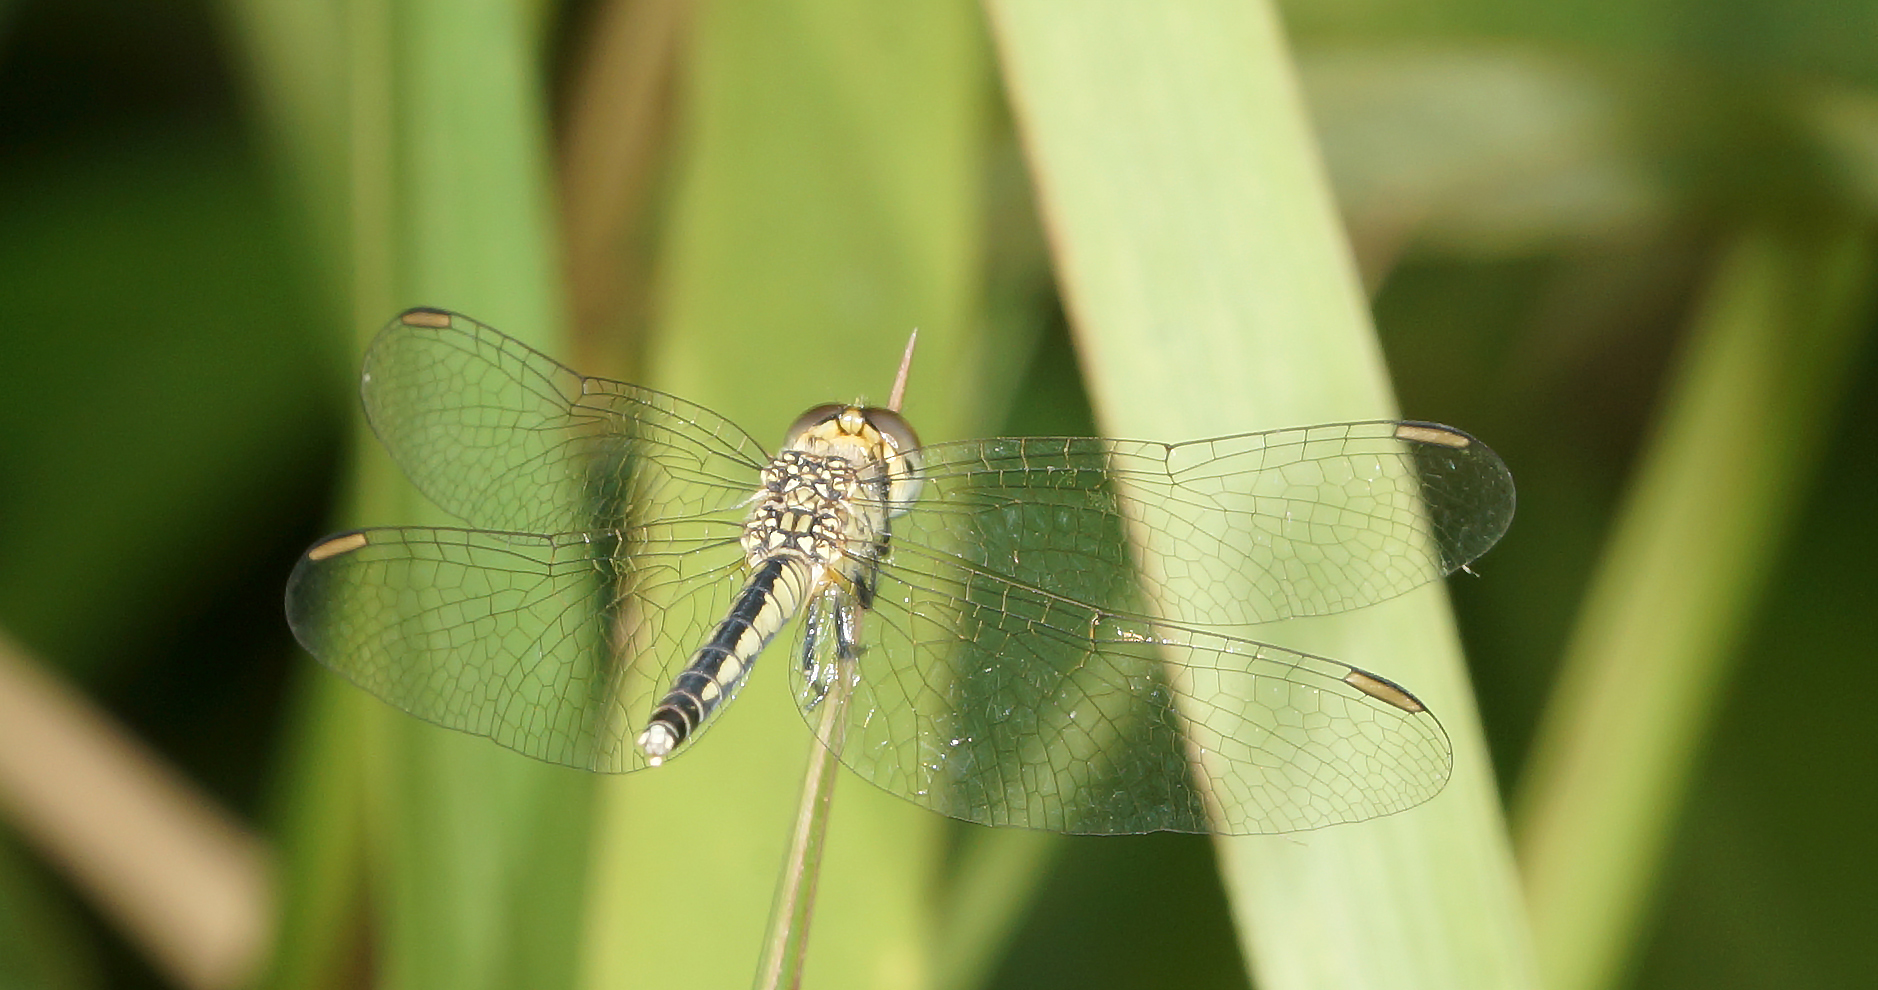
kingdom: Animalia
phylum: Arthropoda
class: Insecta
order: Odonata
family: Libellulidae
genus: Diplacodes
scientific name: Diplacodes nebulosa
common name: Black-tipped percher
